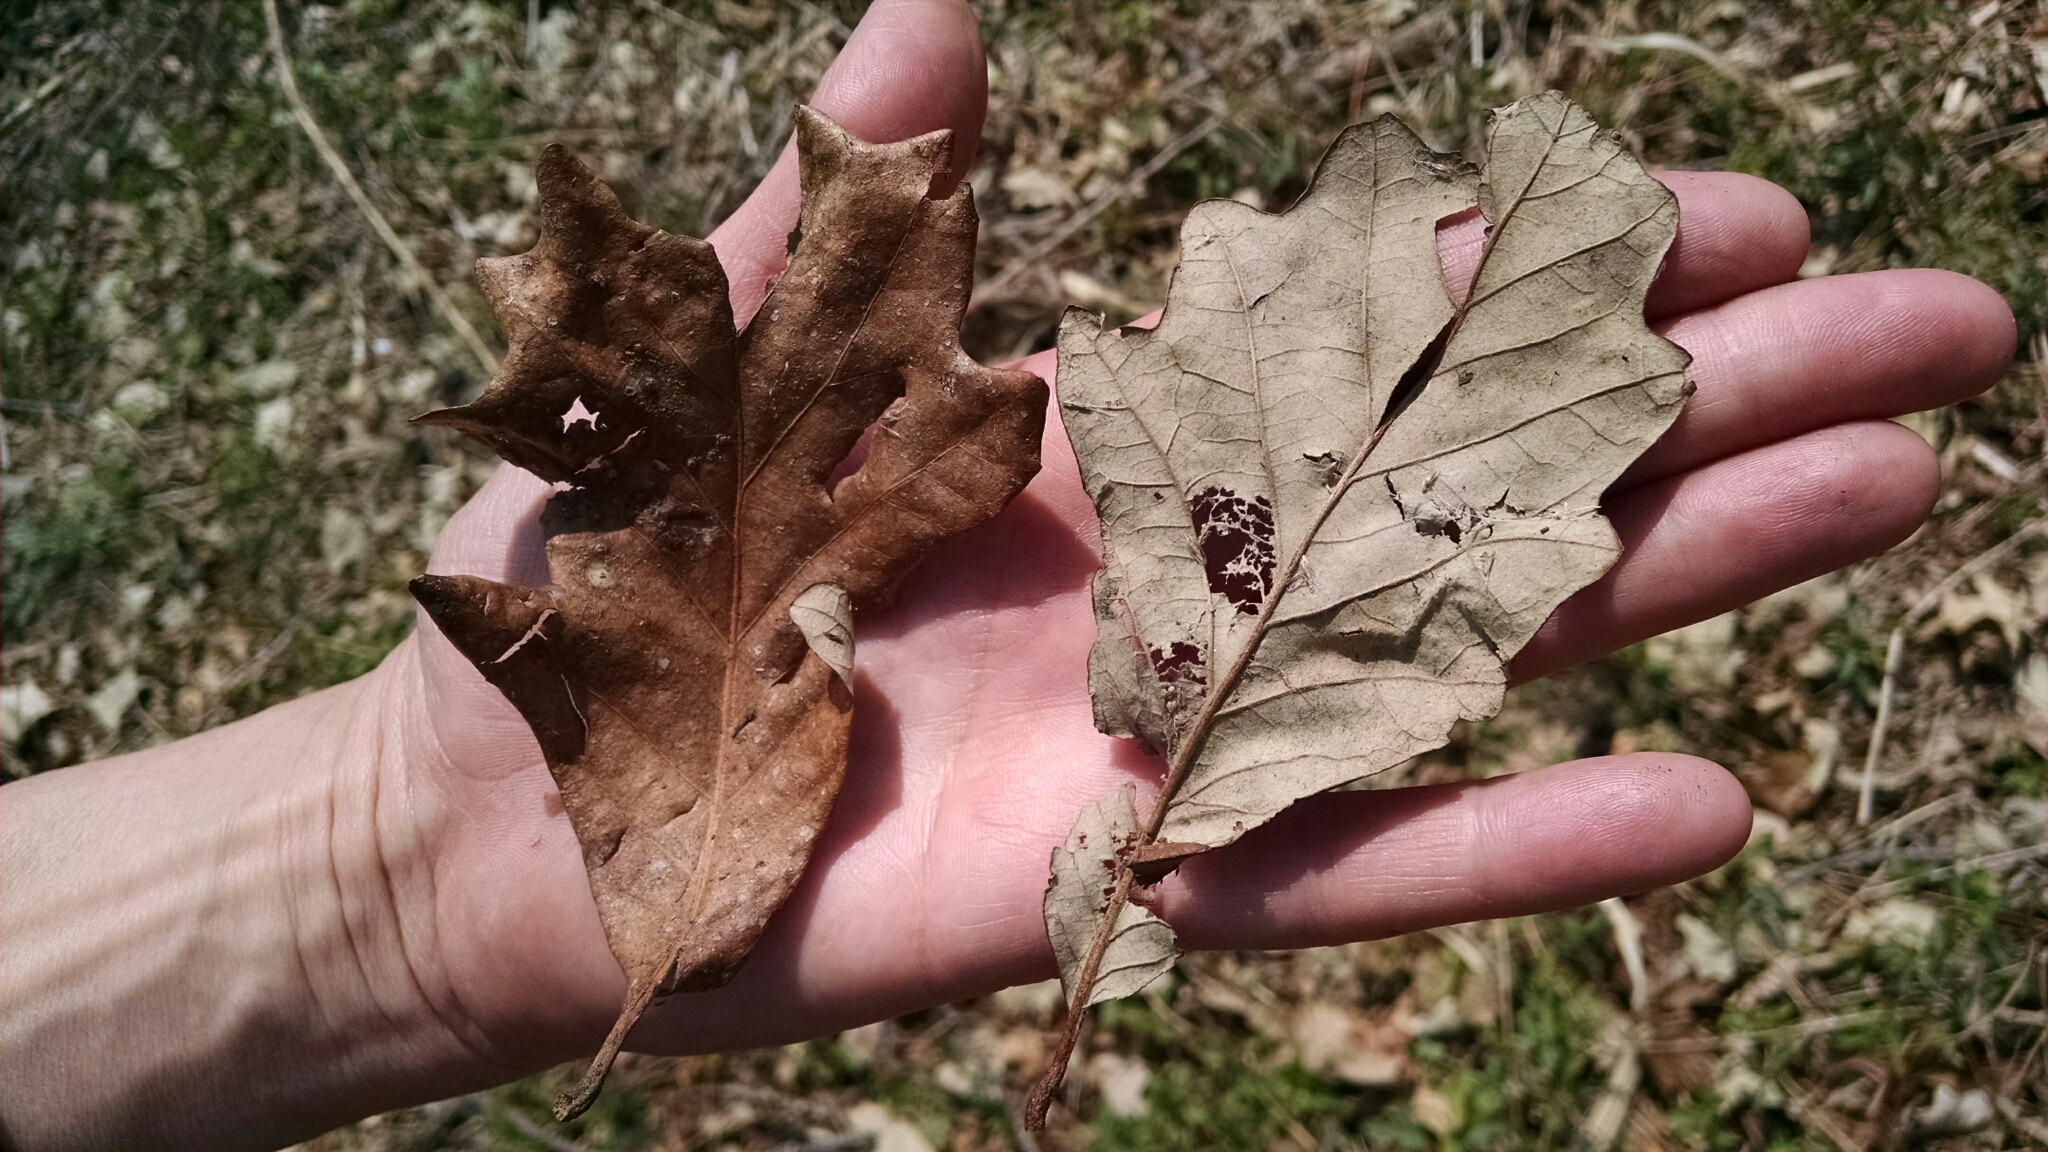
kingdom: Plantae
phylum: Tracheophyta
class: Magnoliopsida
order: Fagales
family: Fagaceae
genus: Quercus
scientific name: Quercus bicolor
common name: Swamp white oak
